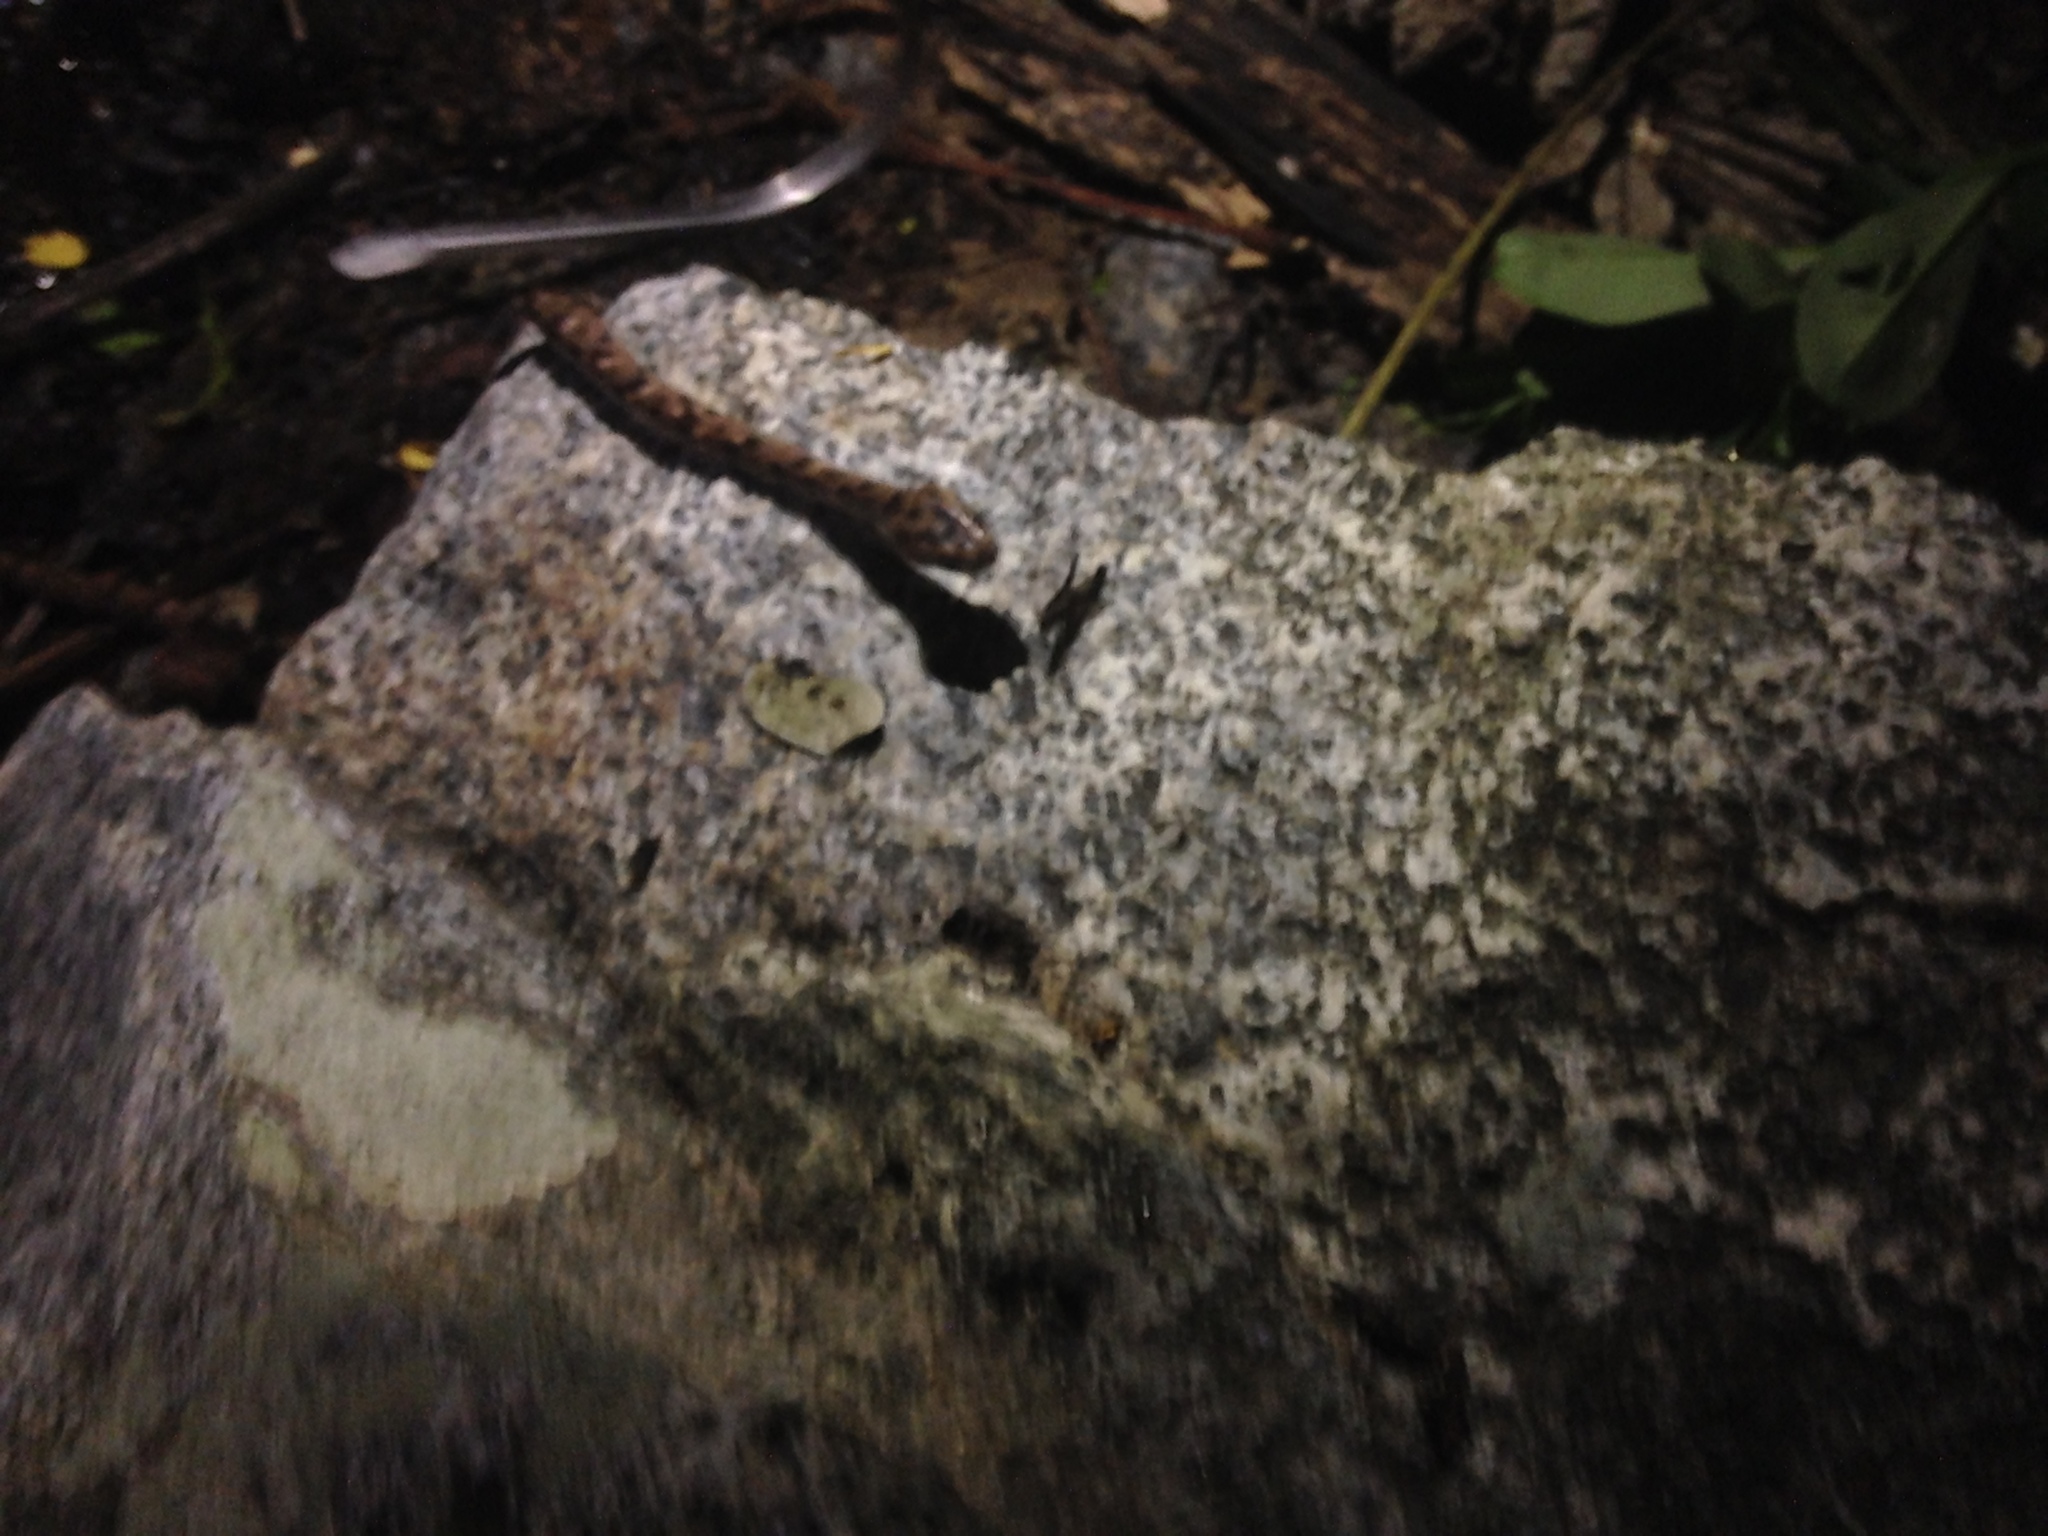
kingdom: Animalia
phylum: Chordata
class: Squamata
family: Colubridae
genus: Sibon
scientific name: Sibon nebulatus
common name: Cloudy snail-eating snake
